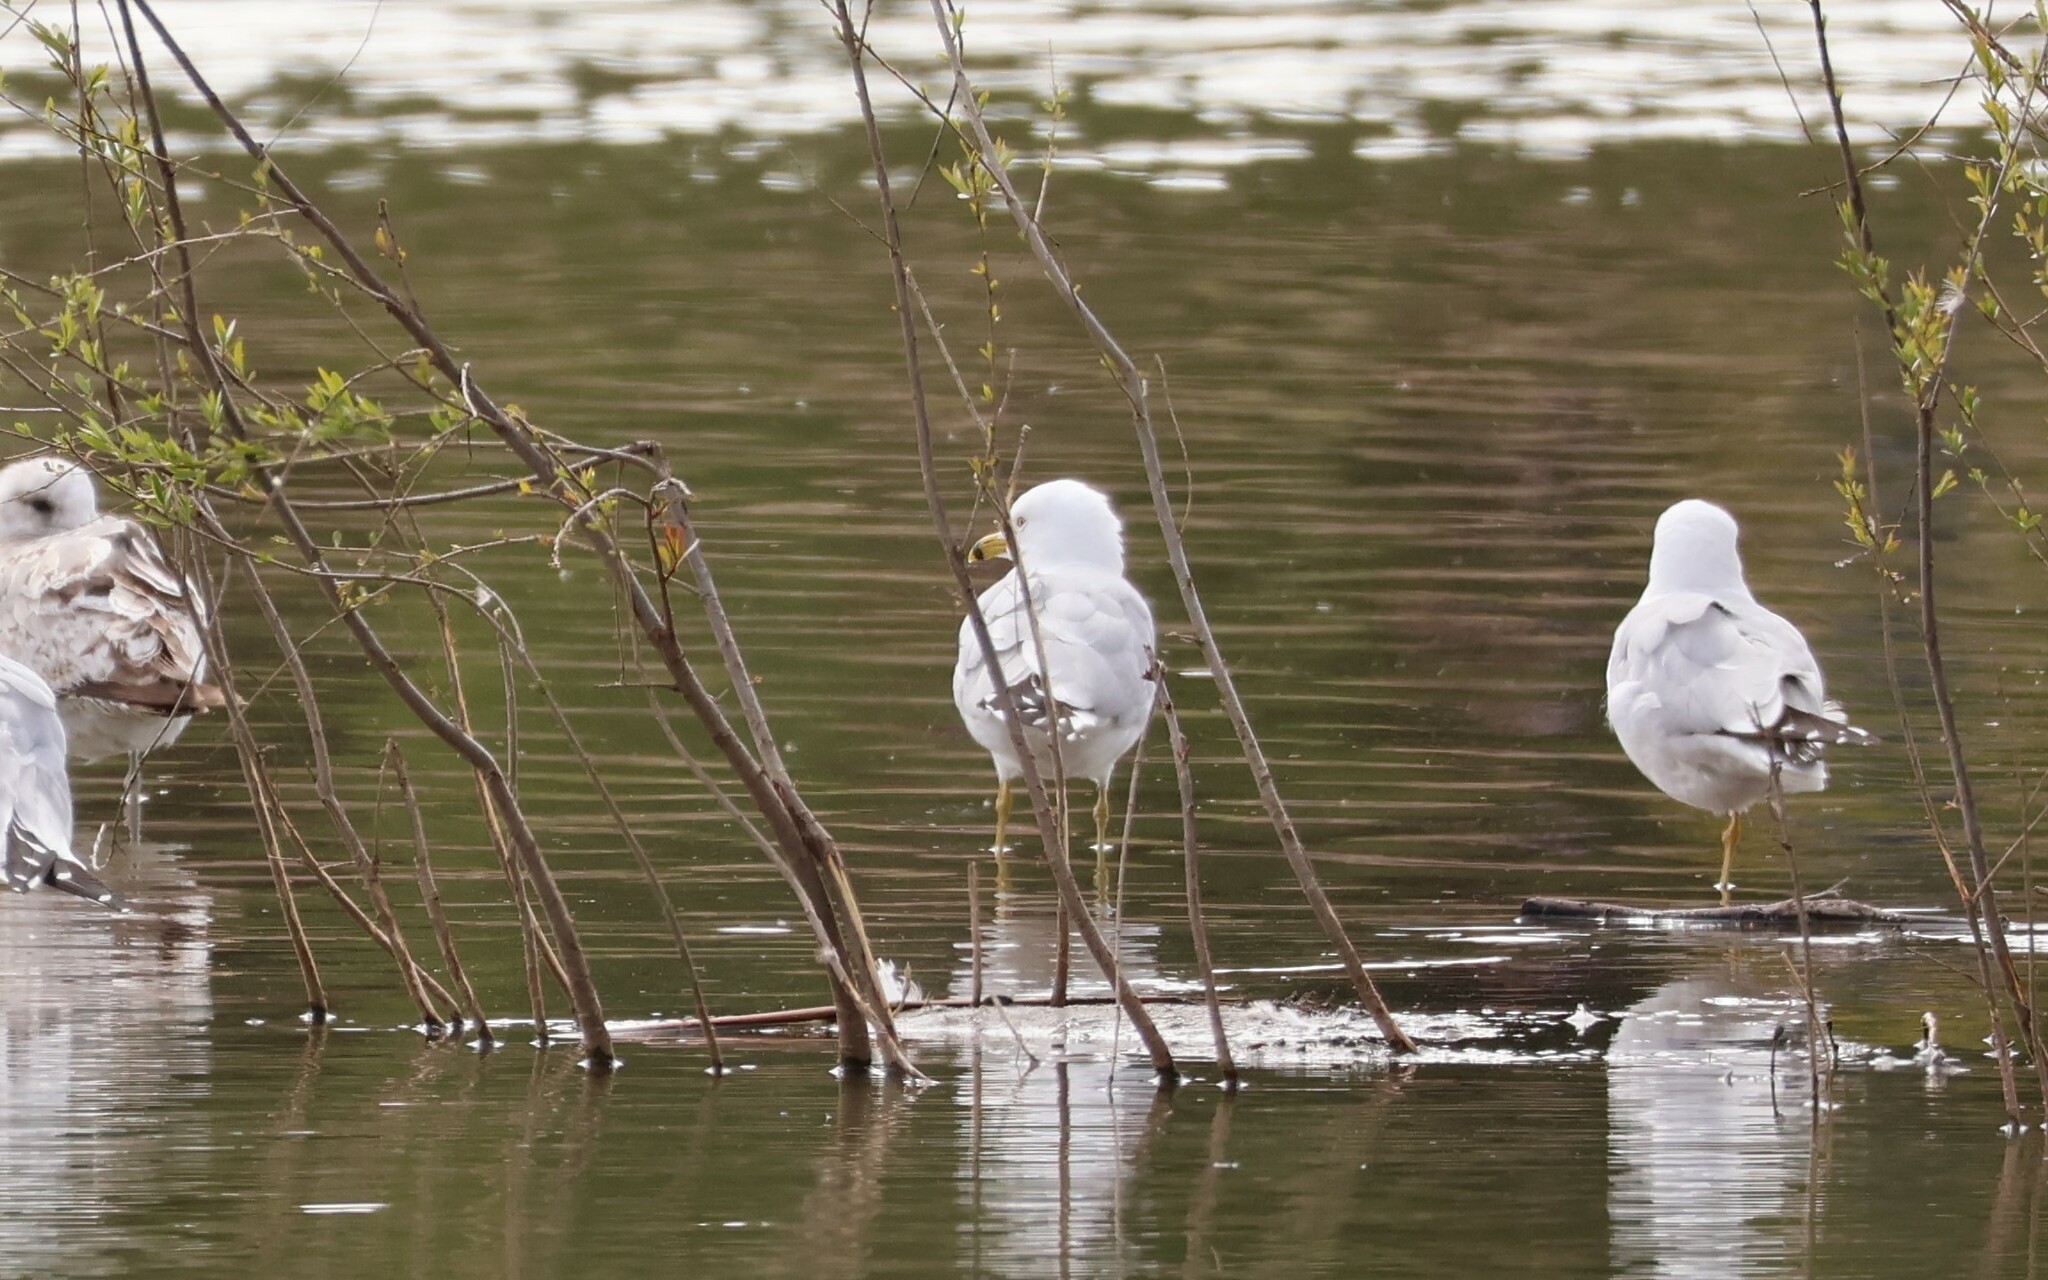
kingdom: Animalia
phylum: Chordata
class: Aves
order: Charadriiformes
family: Laridae
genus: Larus
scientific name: Larus delawarensis
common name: Ring-billed gull
